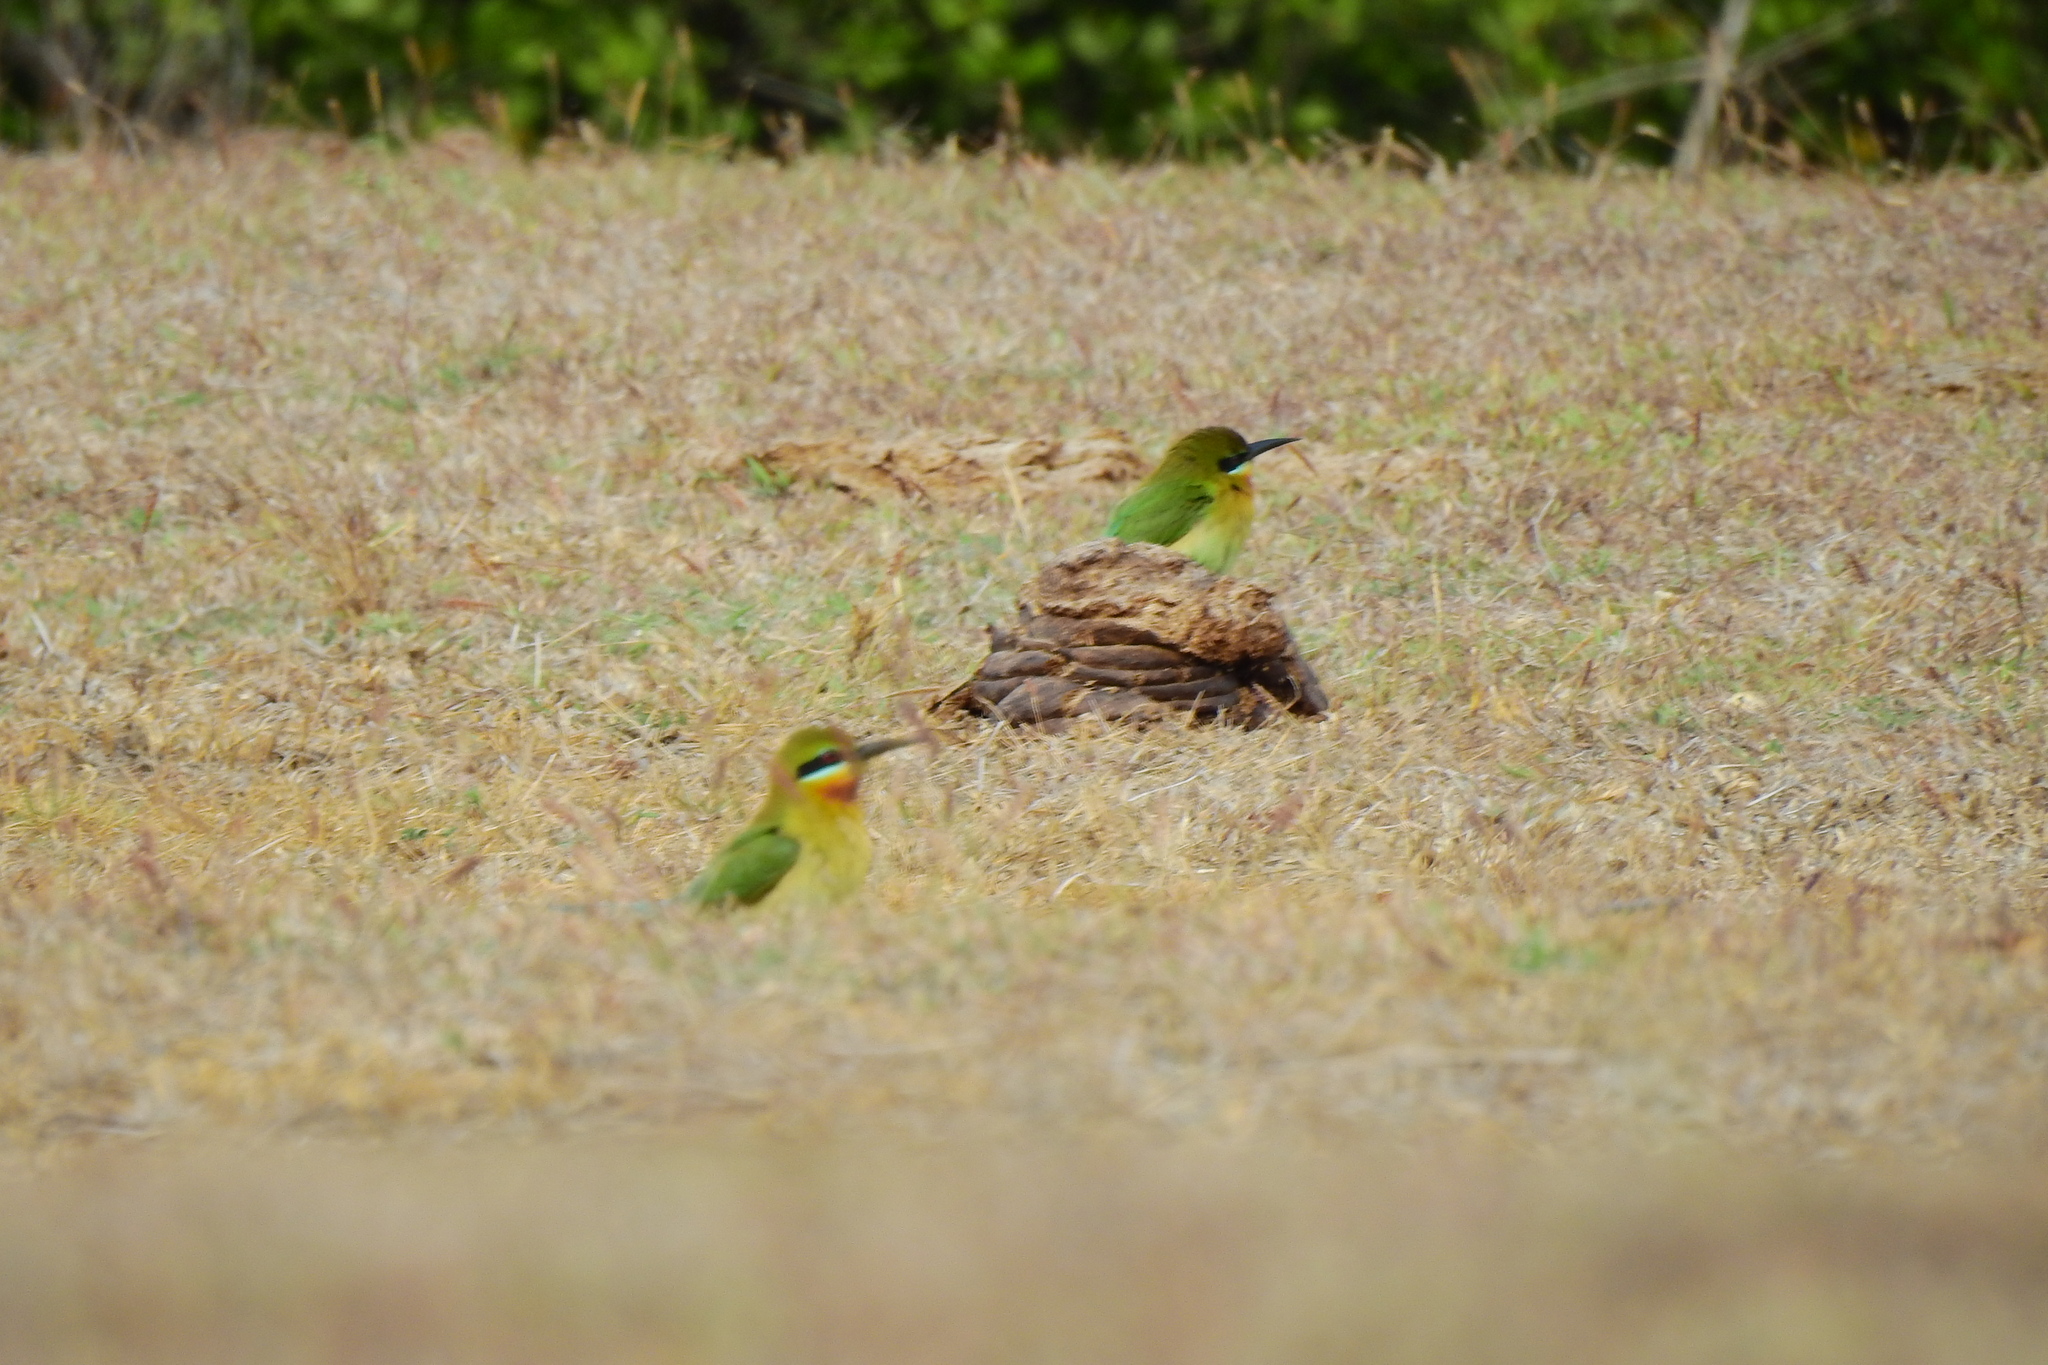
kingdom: Animalia
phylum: Chordata
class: Aves
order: Coraciiformes
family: Meropidae
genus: Merops
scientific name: Merops philippinus
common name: Blue-tailed bee-eater
